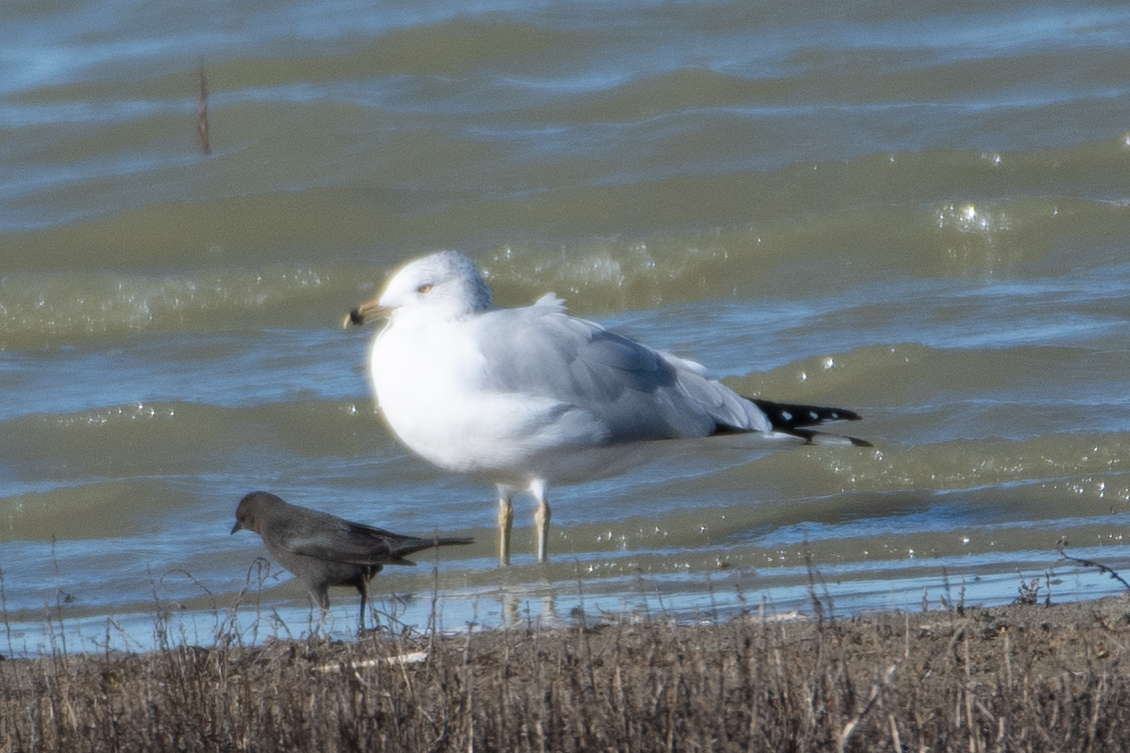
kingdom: Animalia
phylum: Chordata
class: Aves
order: Charadriiformes
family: Laridae
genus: Larus
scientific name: Larus delawarensis
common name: Ring-billed gull
